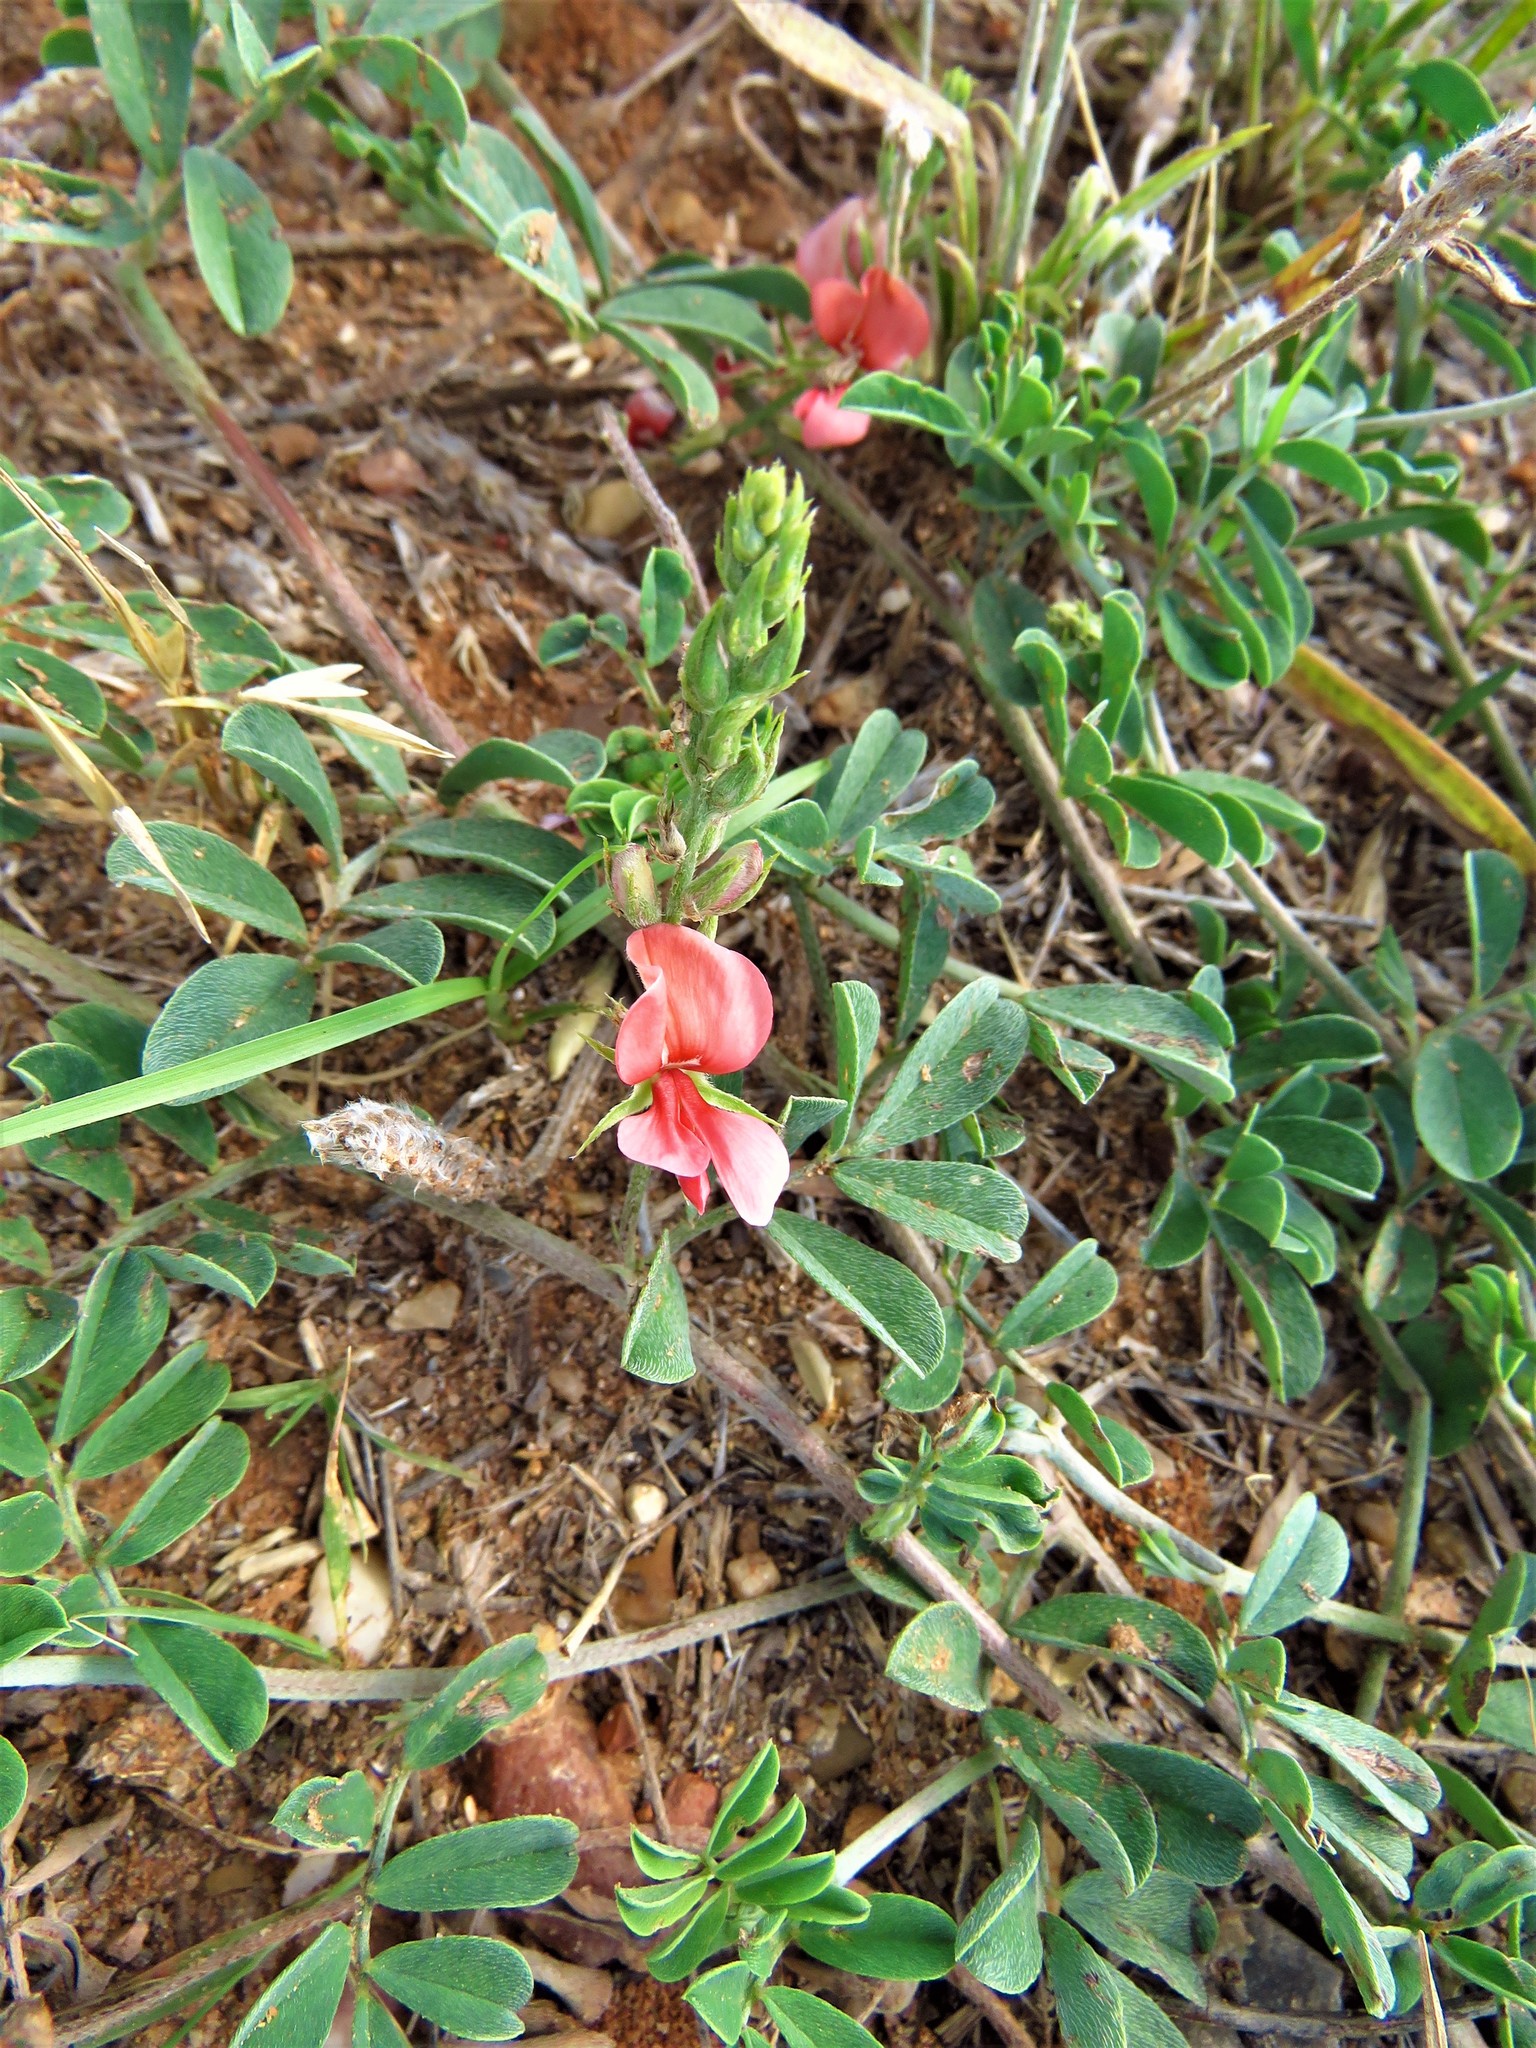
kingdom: Plantae
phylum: Tracheophyta
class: Magnoliopsida
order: Fabales
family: Fabaceae
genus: Indigofera
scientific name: Indigofera miniata
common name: Coast indigo
